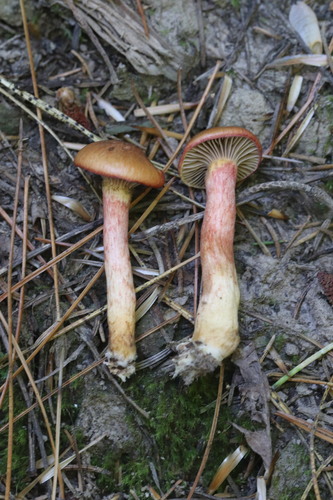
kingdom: Fungi
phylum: Basidiomycota
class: Agaricomycetes
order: Boletales
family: Gomphidiaceae
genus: Chroogomphus
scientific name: Chroogomphus rutilus
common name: Copper spike
